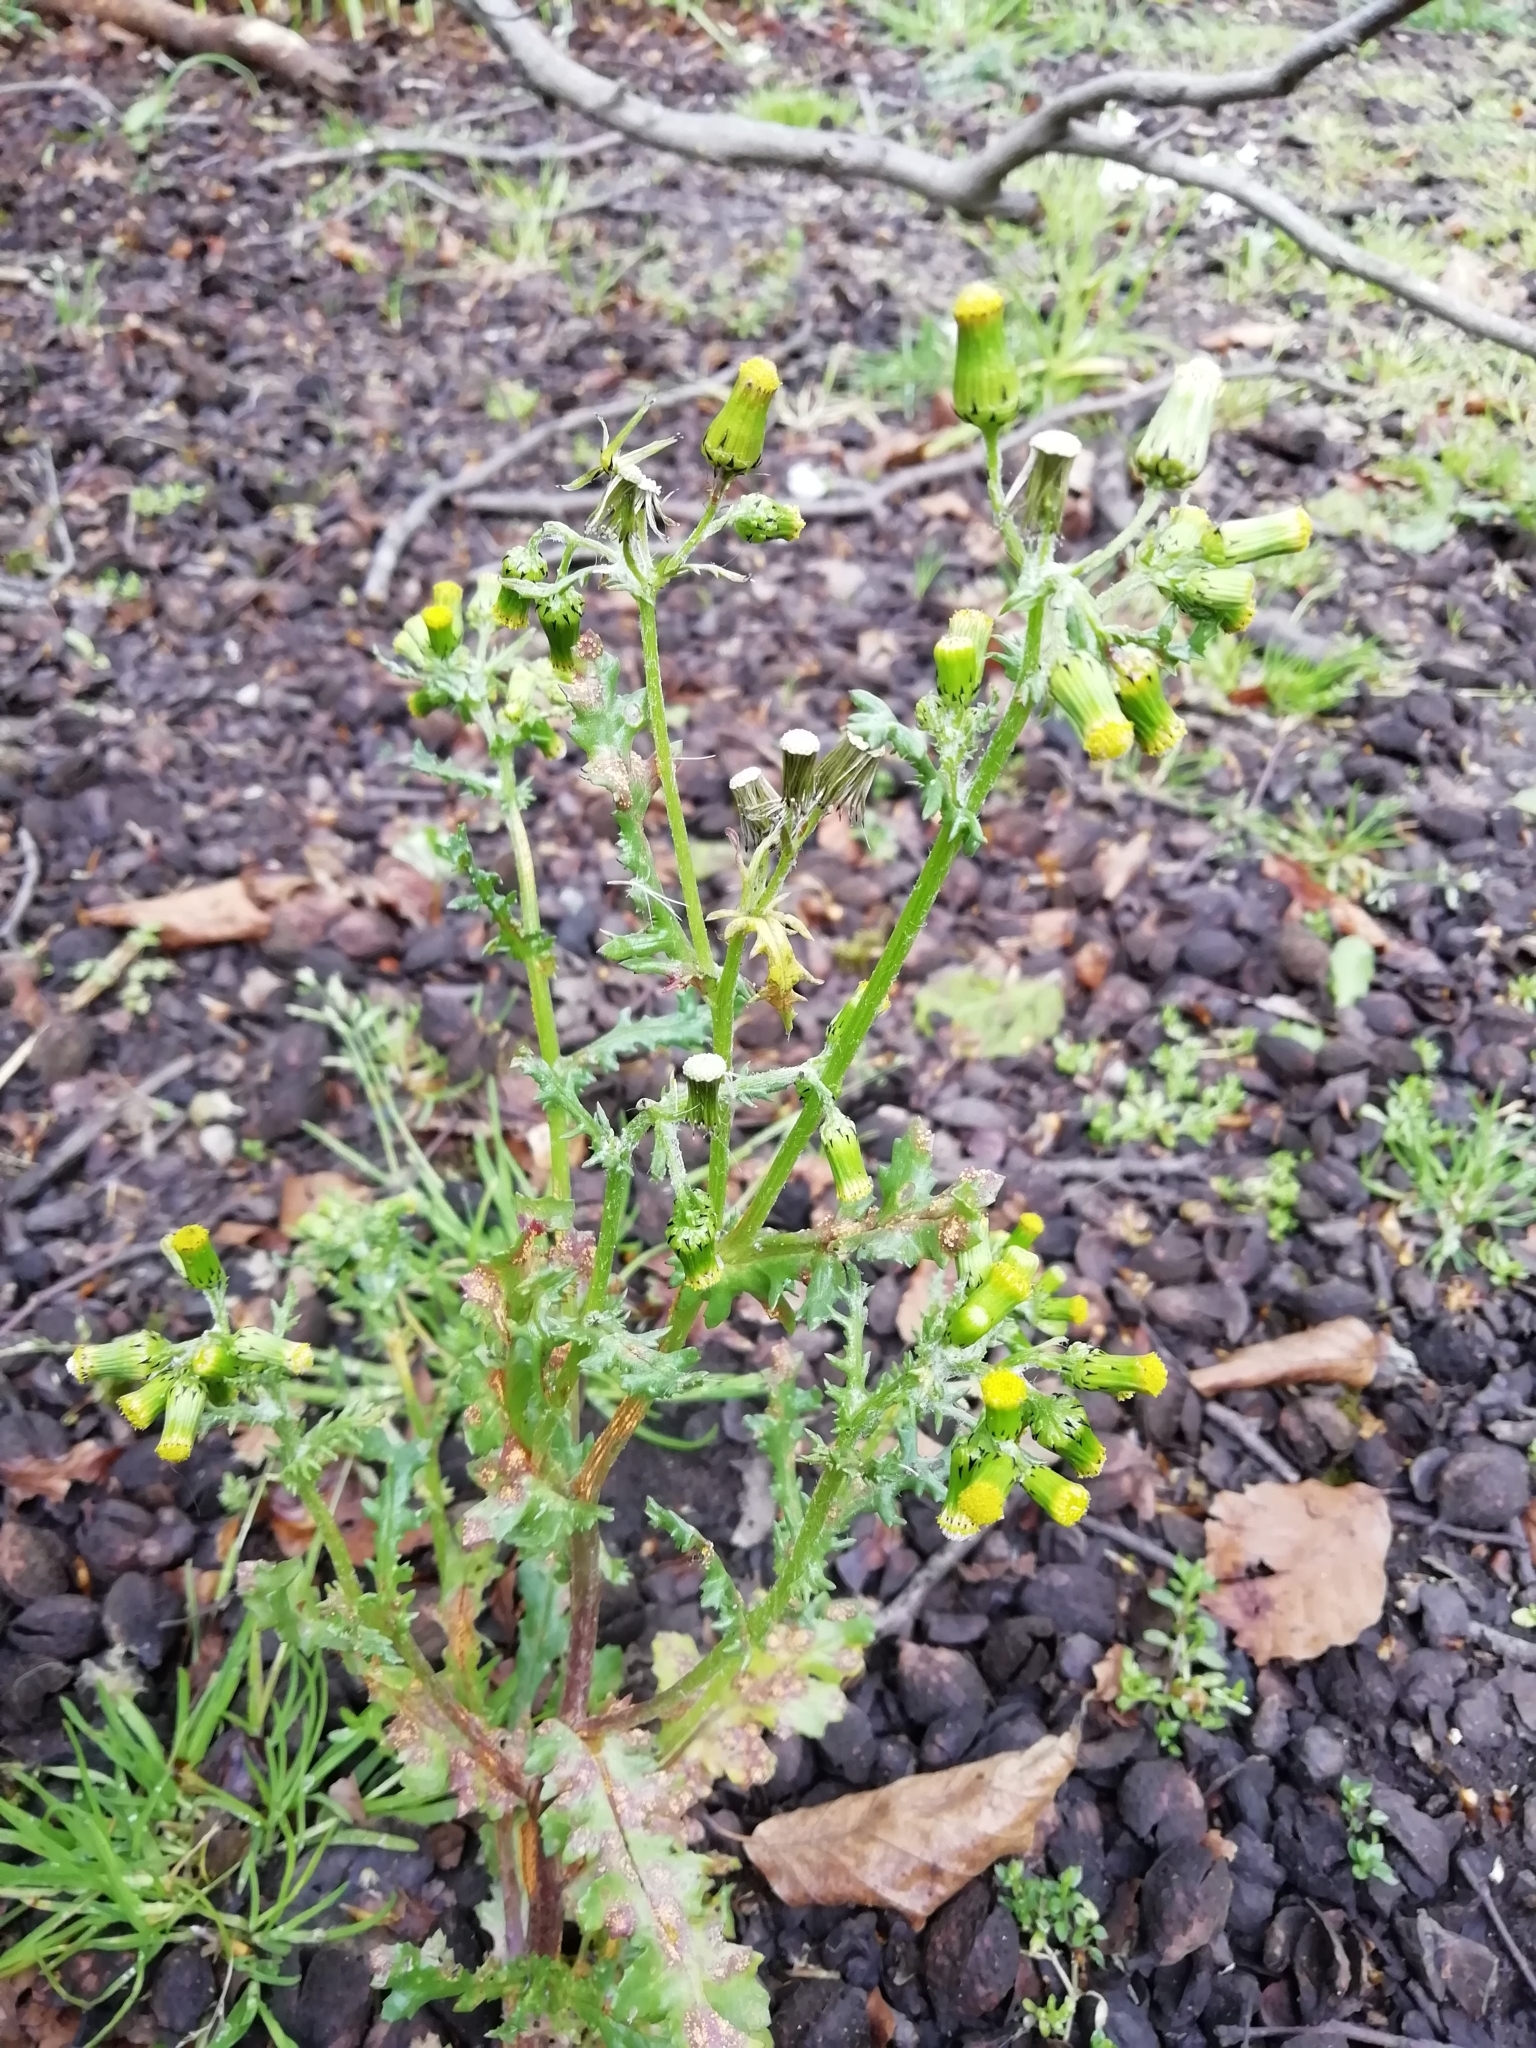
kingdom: Plantae
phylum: Tracheophyta
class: Magnoliopsida
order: Asterales
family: Asteraceae
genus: Senecio
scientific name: Senecio vulgaris
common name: Old-man-in-the-spring
